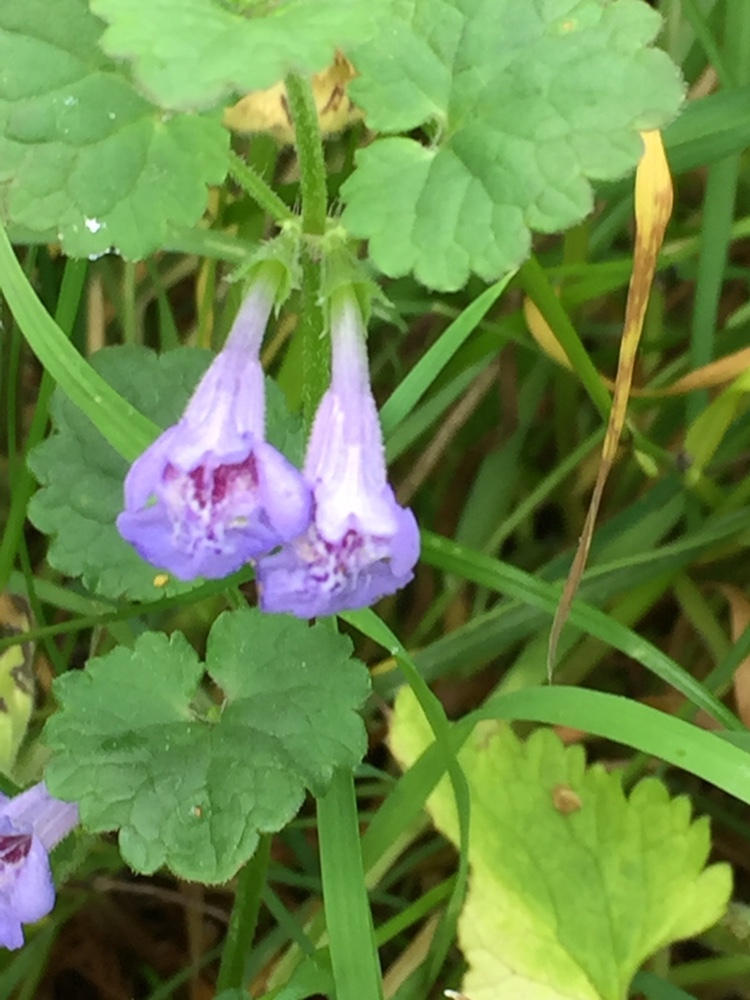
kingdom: Plantae
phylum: Tracheophyta
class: Magnoliopsida
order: Lamiales
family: Lamiaceae
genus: Glechoma
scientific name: Glechoma hederacea
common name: Ground ivy
